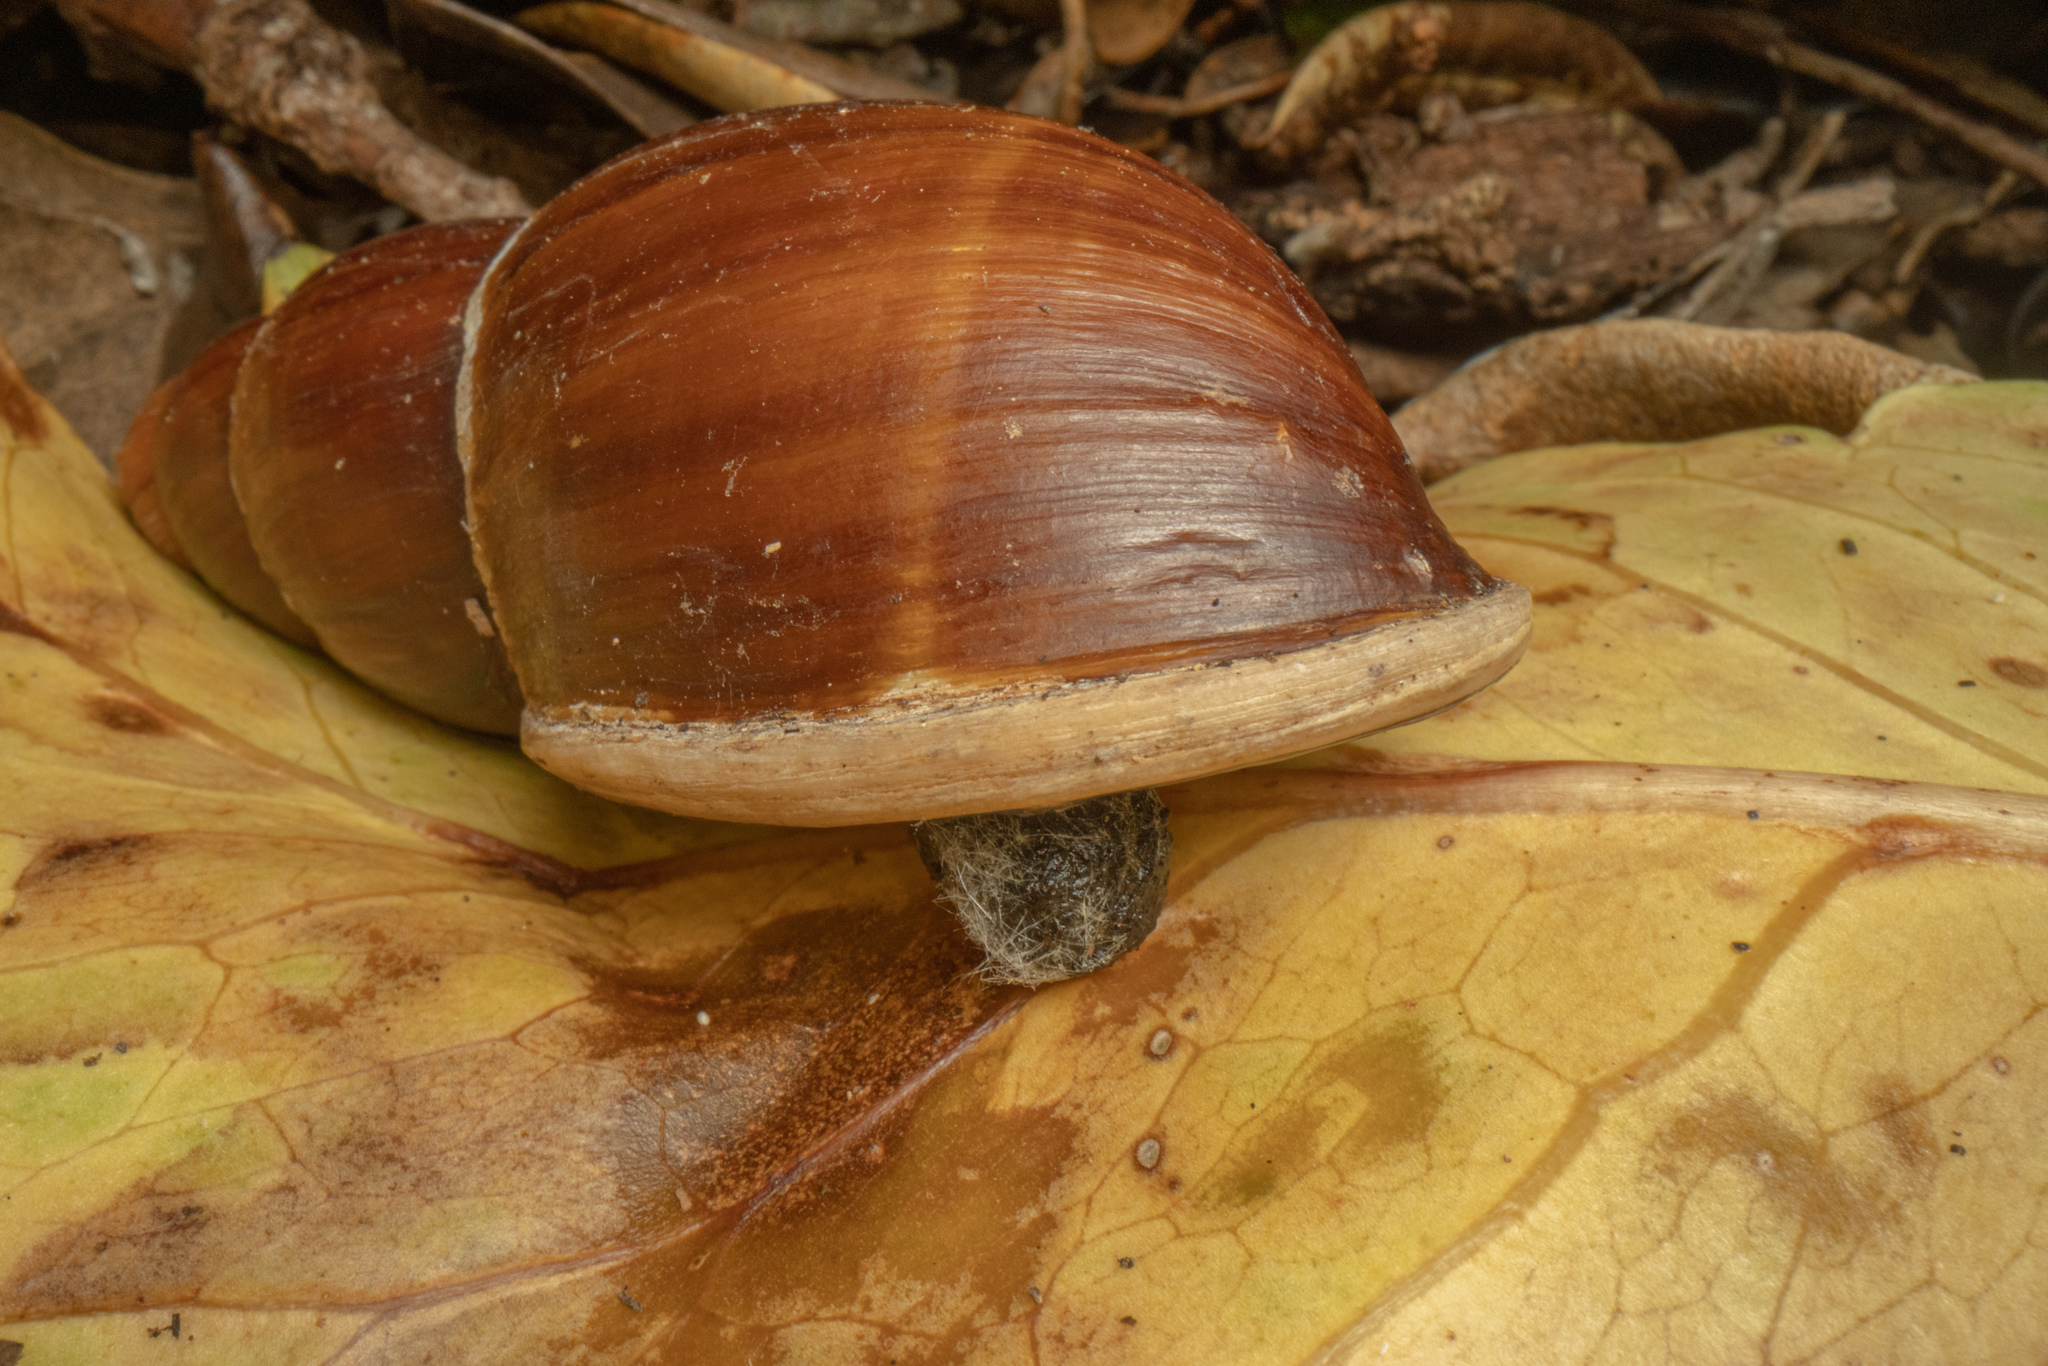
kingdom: Animalia
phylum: Mollusca
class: Gastropoda
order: Stylommatophora
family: Bothriembryontidae
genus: Maoristylus
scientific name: Maoristylus hongii
